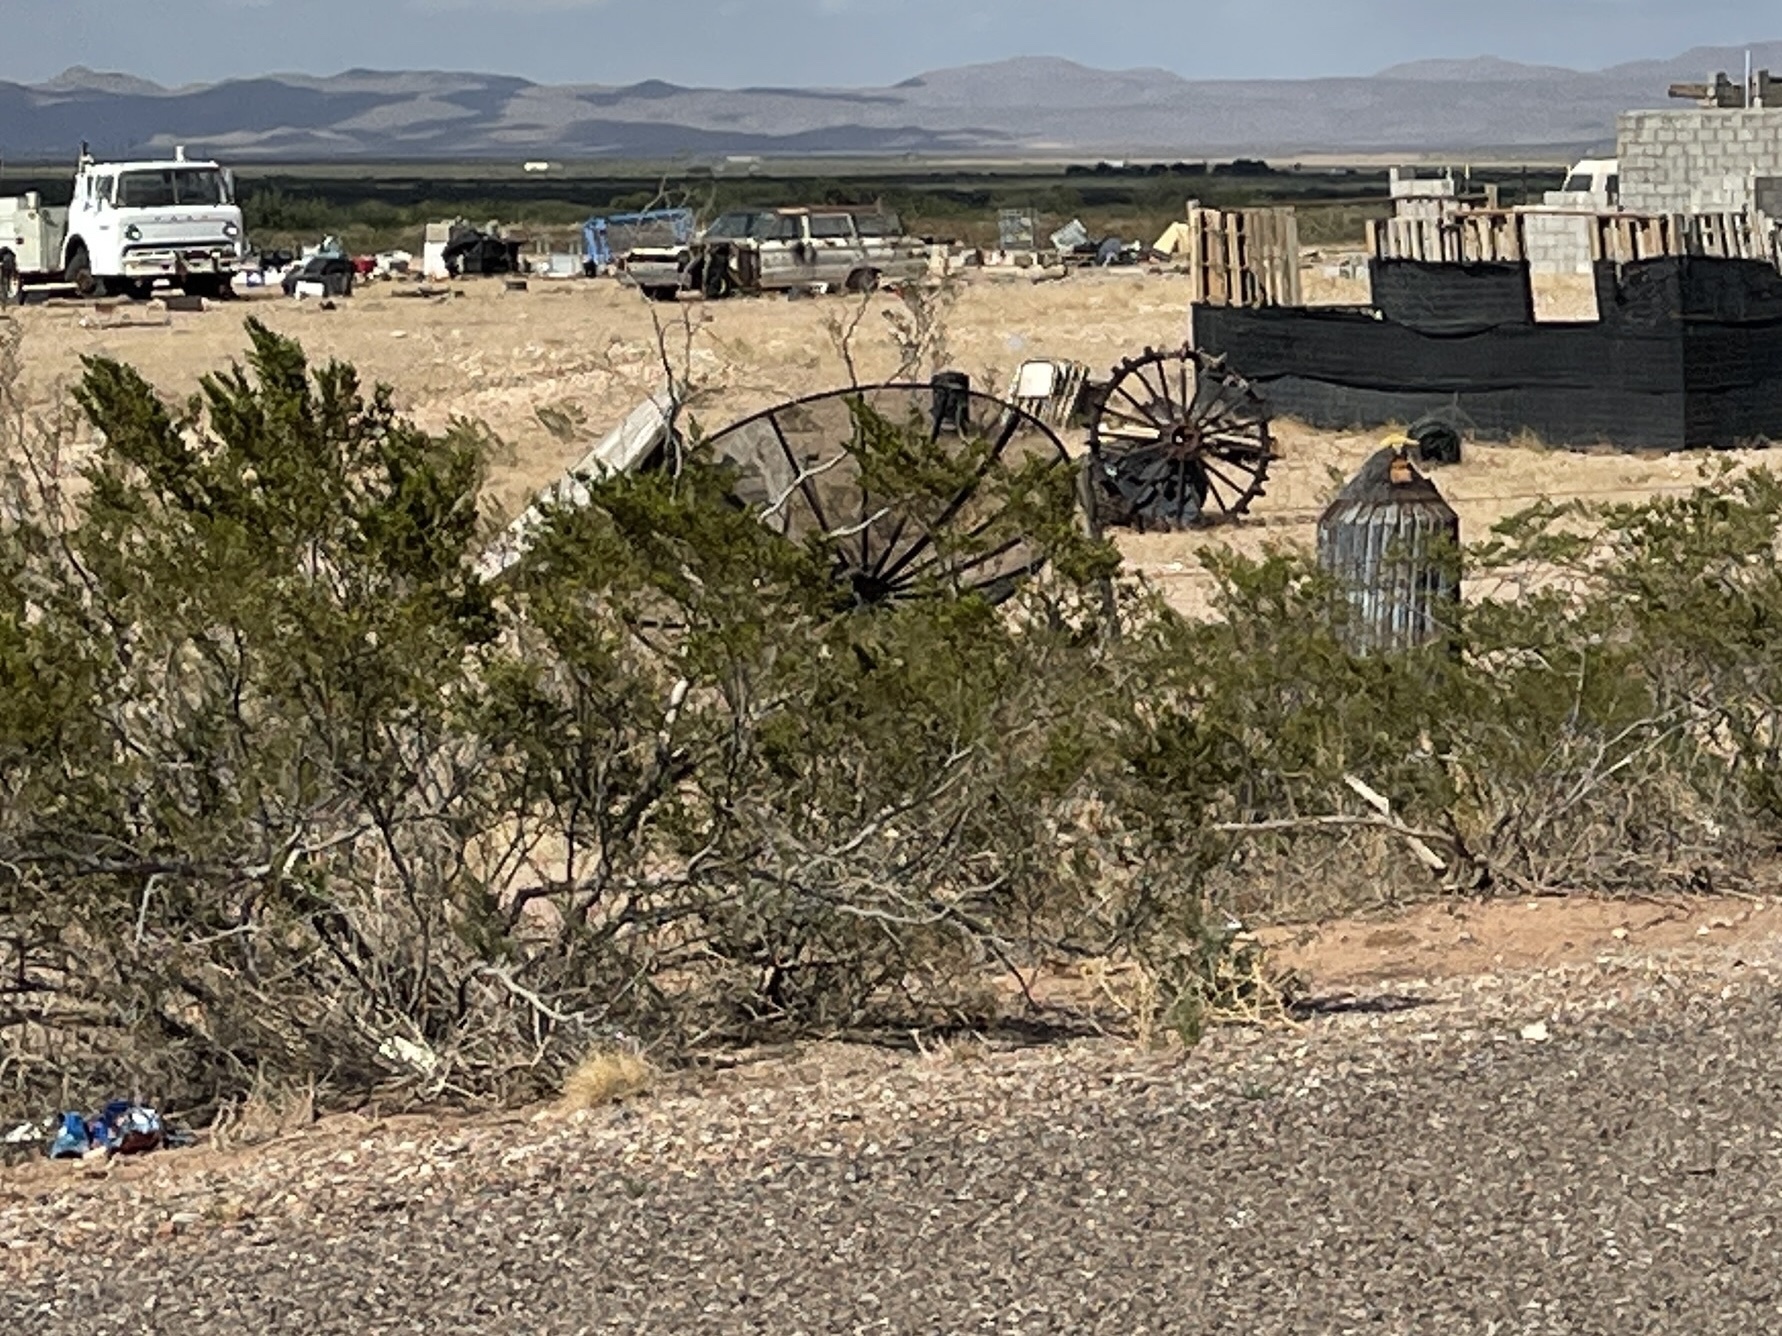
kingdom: Plantae
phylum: Tracheophyta
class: Magnoliopsida
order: Zygophyllales
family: Zygophyllaceae
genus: Larrea
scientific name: Larrea tridentata
